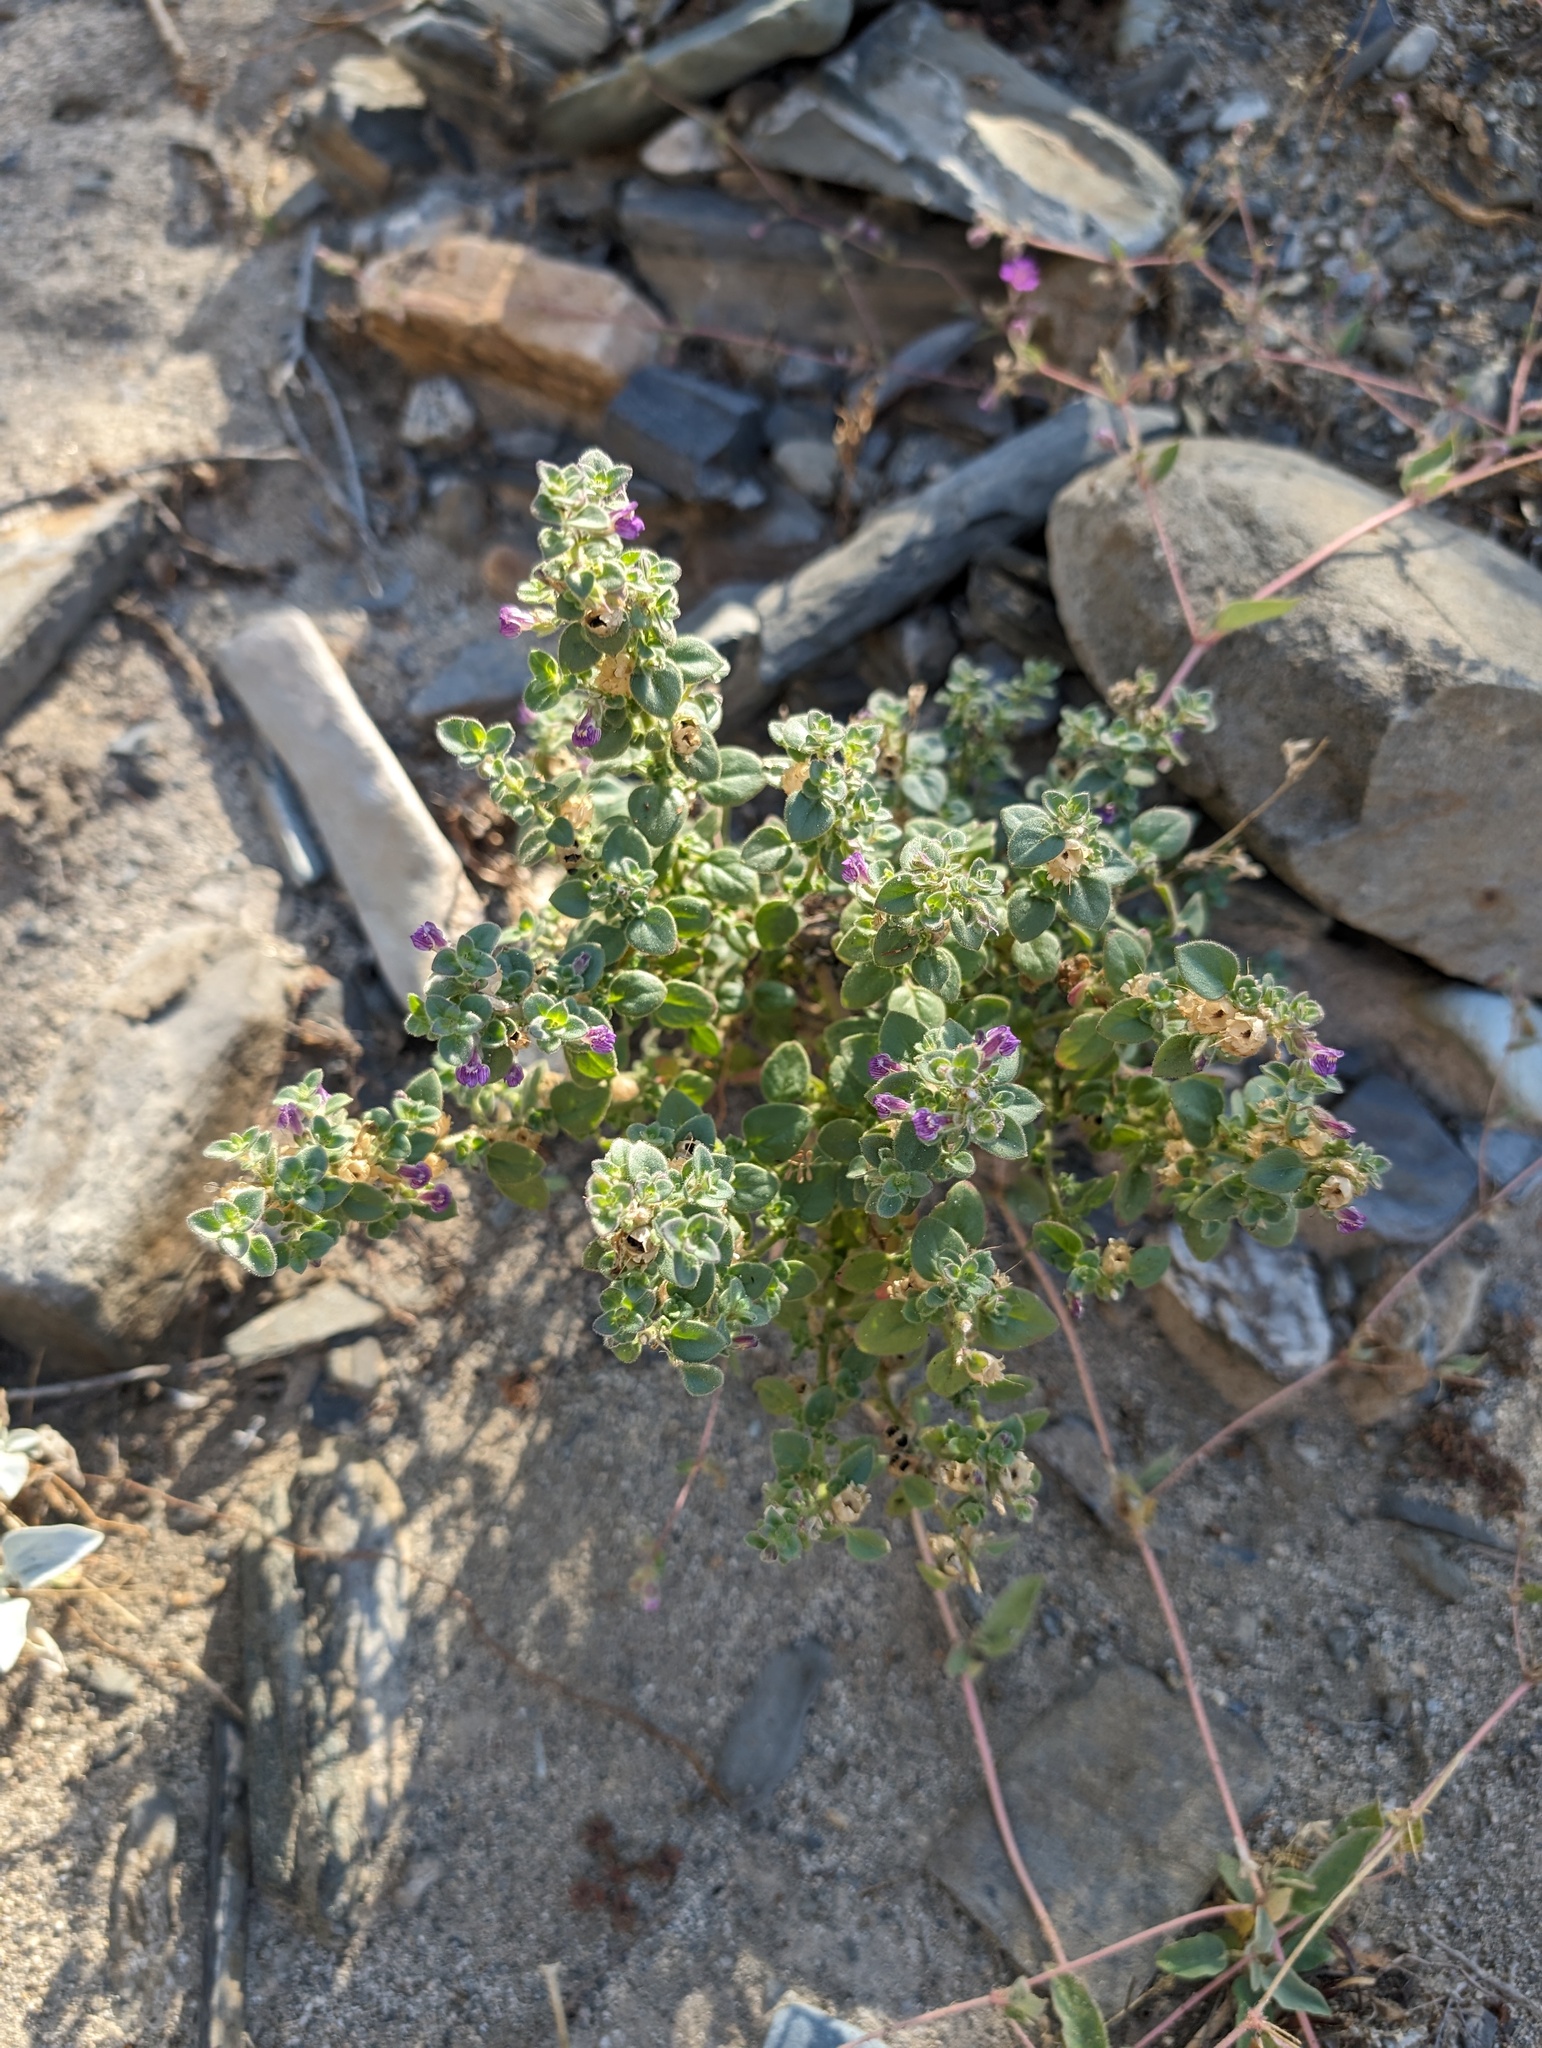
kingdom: Plantae
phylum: Tracheophyta
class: Magnoliopsida
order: Lamiales
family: Plantaginaceae
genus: Pseudorontium
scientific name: Pseudorontium cyathiferum
